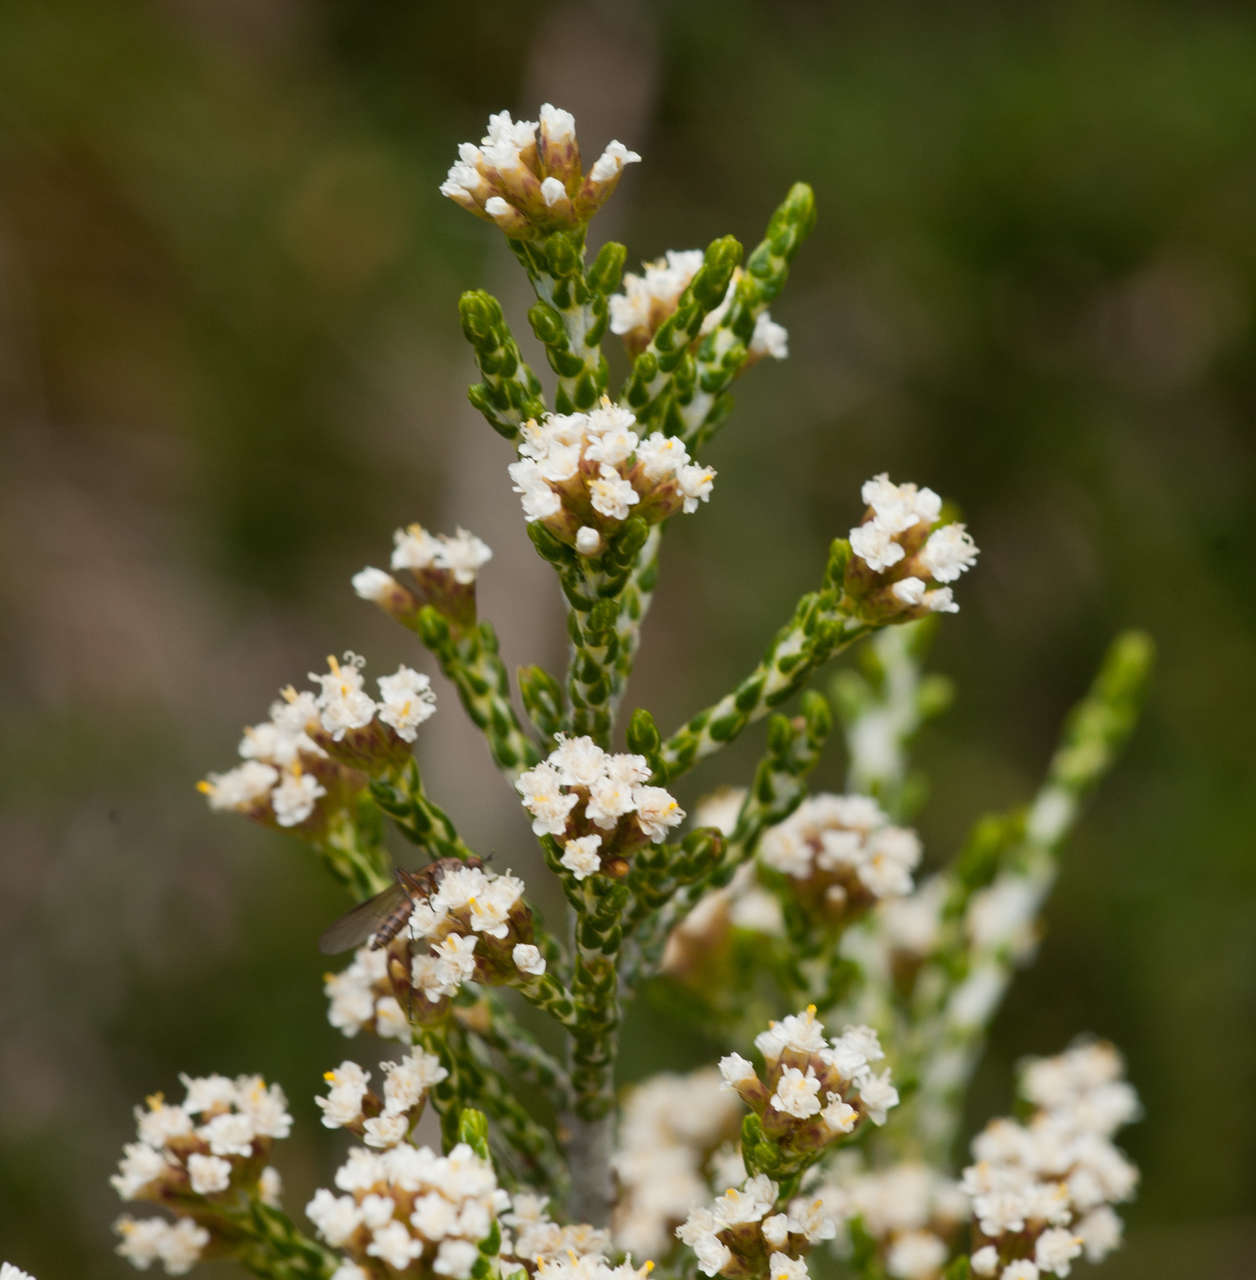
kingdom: Plantae
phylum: Tracheophyta
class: Magnoliopsida
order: Asterales
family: Asteraceae
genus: Ozothamnus
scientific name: Ozothamnus cupressoides
